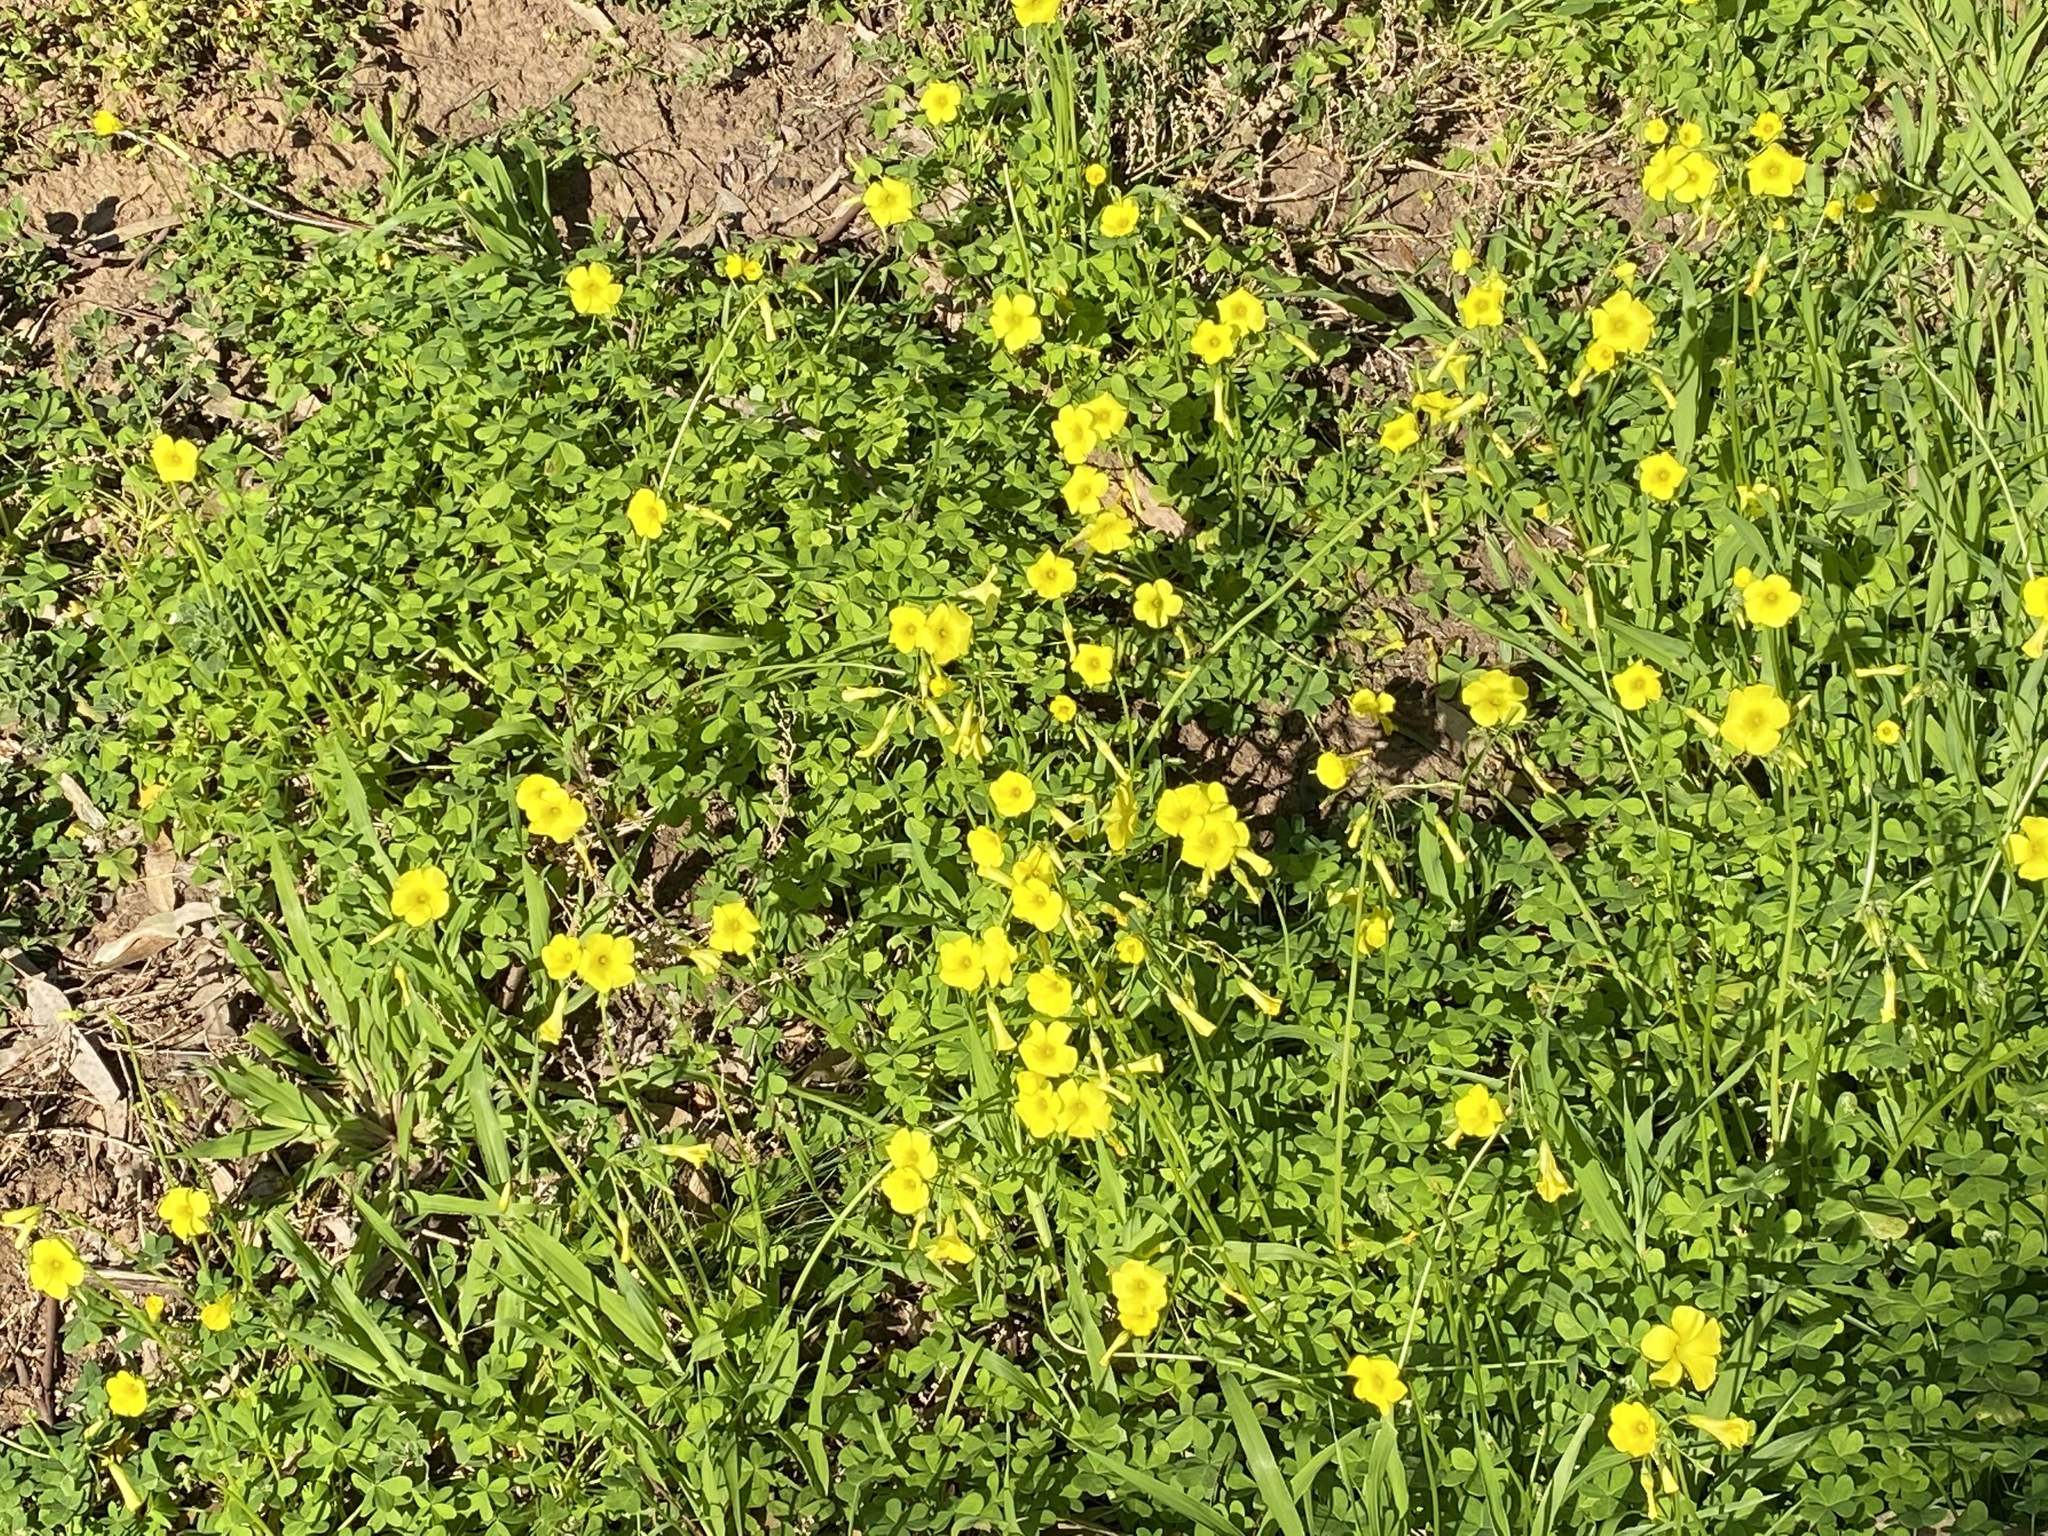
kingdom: Plantae
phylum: Tracheophyta
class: Magnoliopsida
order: Oxalidales
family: Oxalidaceae
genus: Oxalis
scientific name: Oxalis pes-caprae
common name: Bermuda-buttercup
